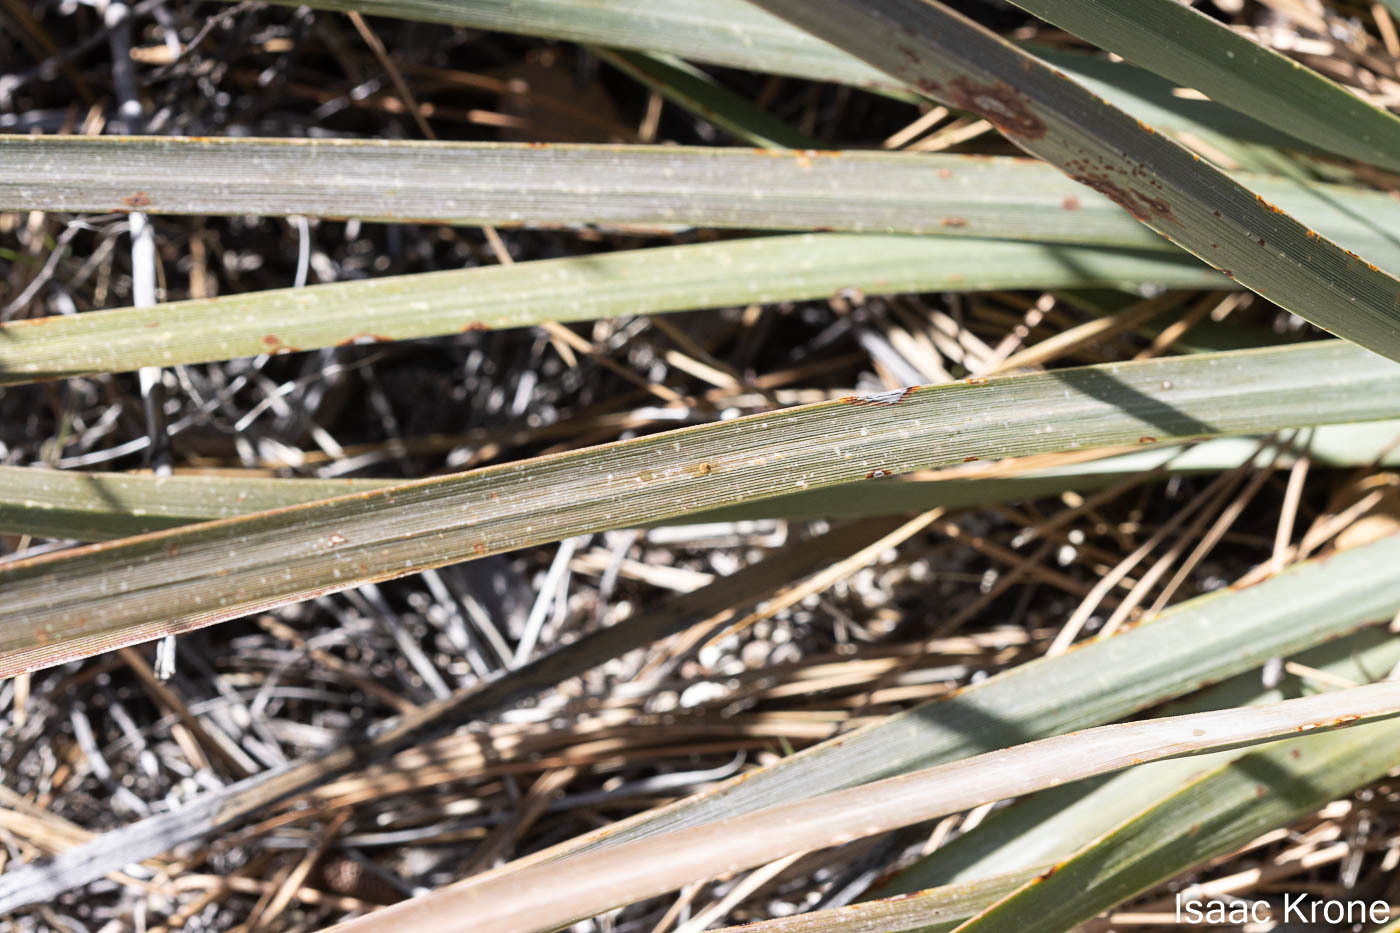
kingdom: Plantae
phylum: Tracheophyta
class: Liliopsida
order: Asparagales
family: Asparagaceae
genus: Hesperoyucca
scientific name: Hesperoyucca whipplei
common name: Our lord's-candle
